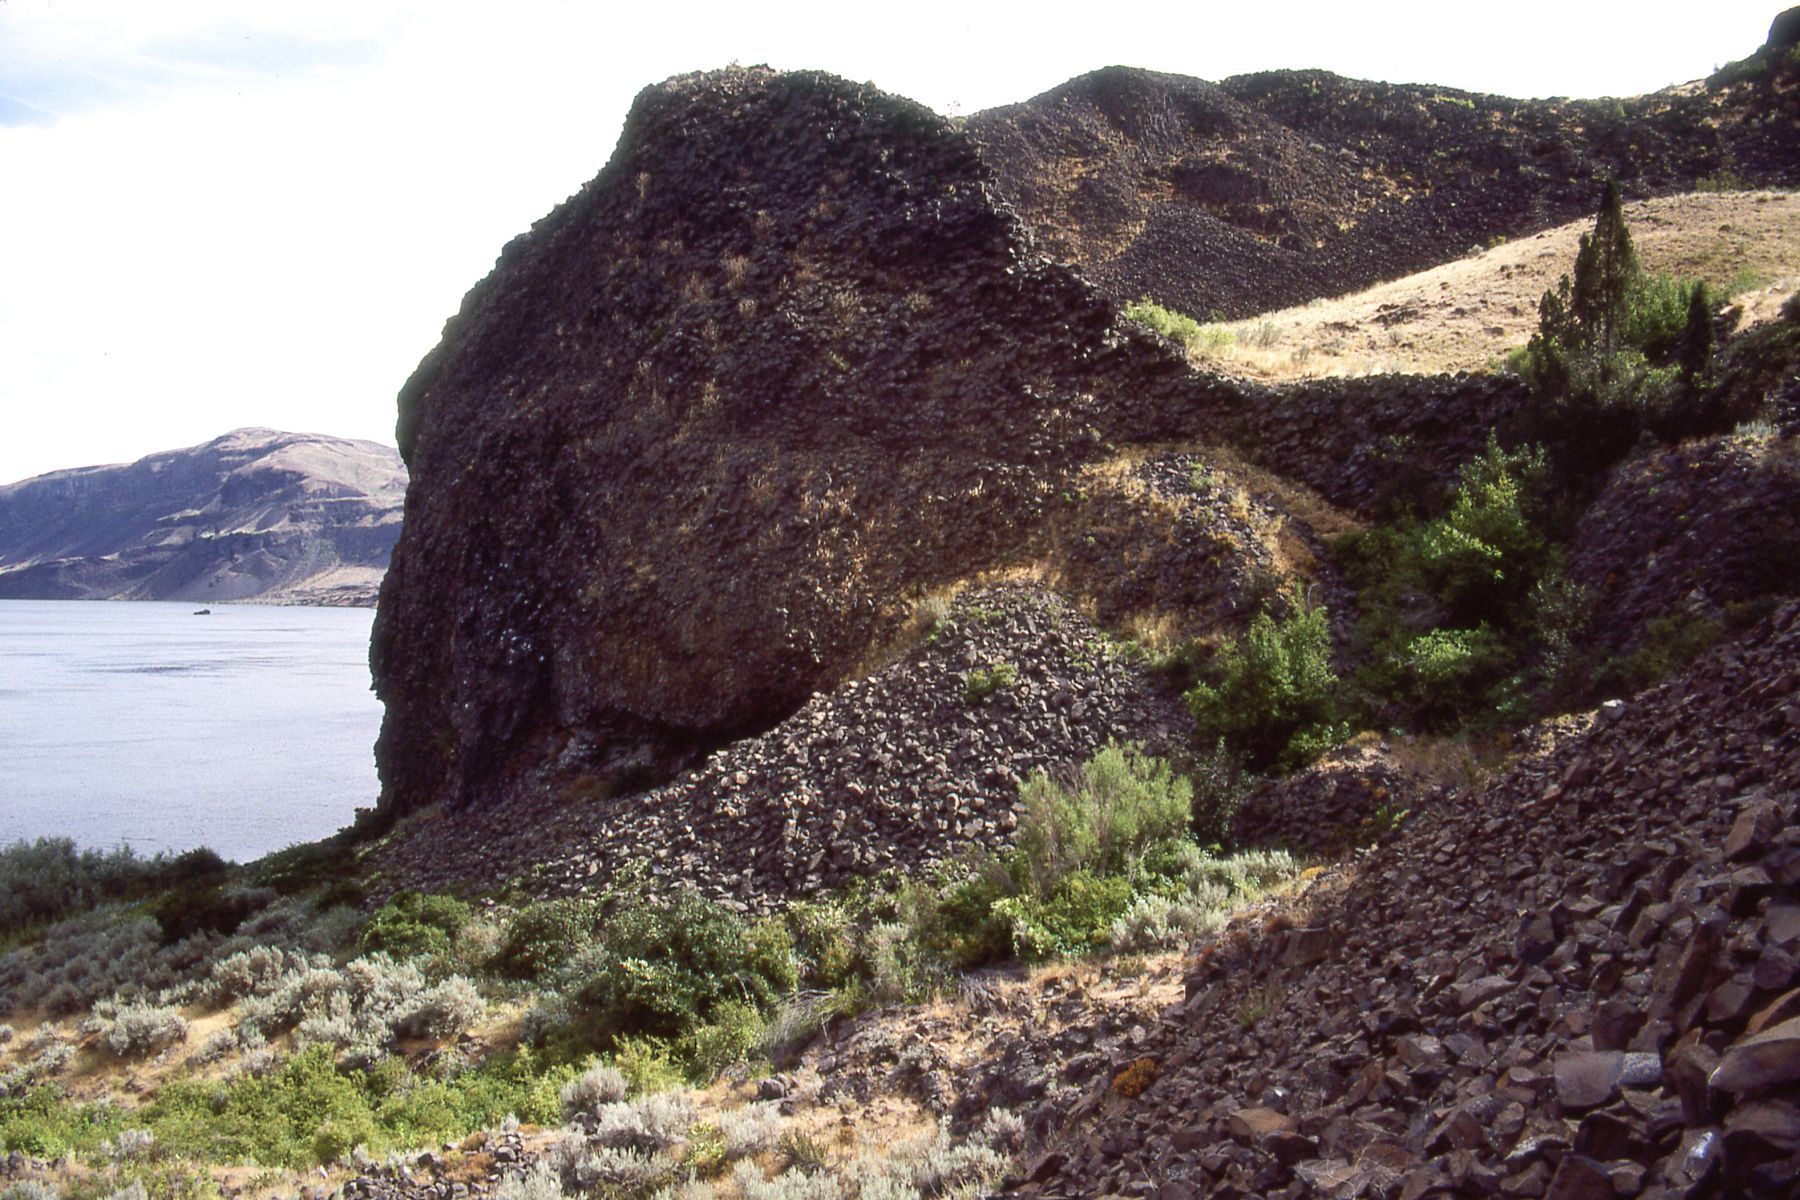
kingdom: Plantae
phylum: Tracheophyta
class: Polypodiopsida
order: Polypodiales
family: Pteridaceae
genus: Pellaea
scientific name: Pellaea glabella
